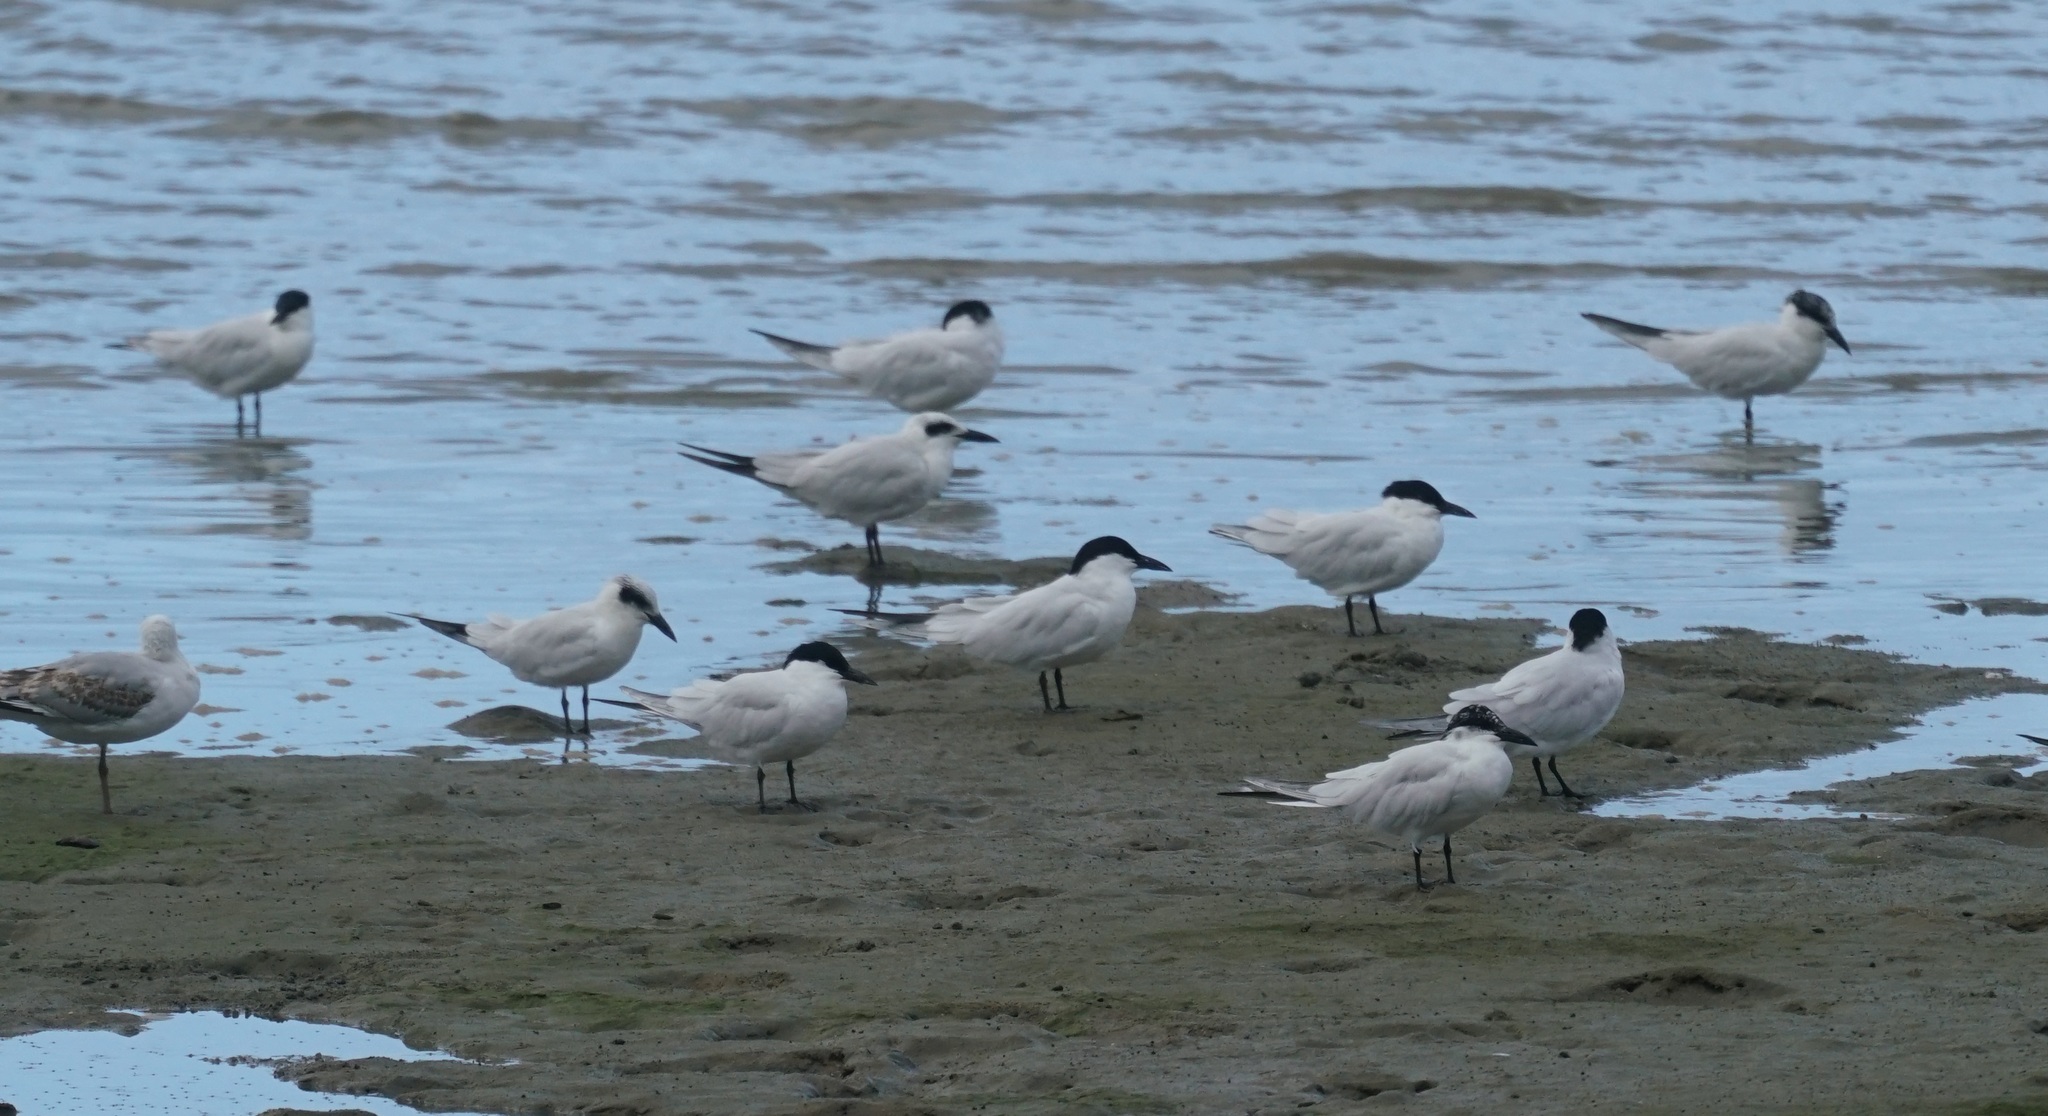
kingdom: Animalia
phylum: Chordata
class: Aves
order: Charadriiformes
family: Laridae
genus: Gelochelidon
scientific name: Gelochelidon macrotarsa
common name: Australian tern
